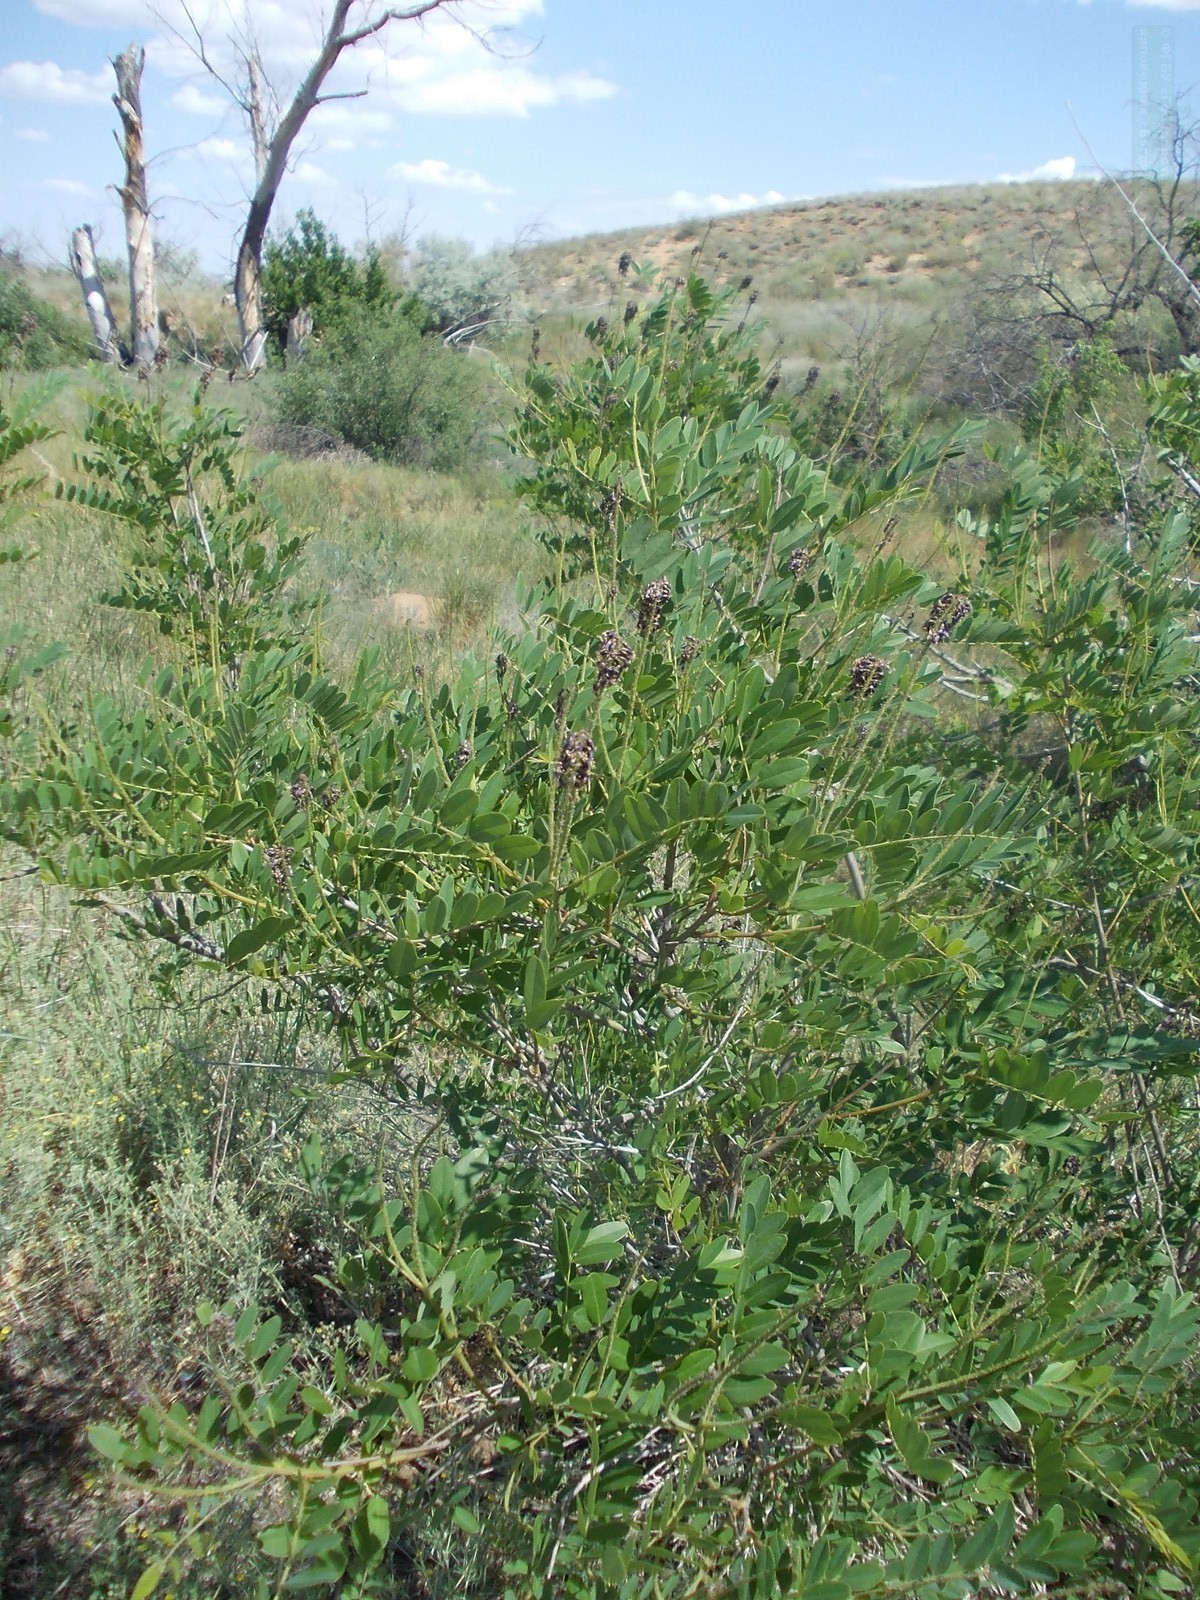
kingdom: Plantae
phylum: Tracheophyta
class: Magnoliopsida
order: Fabales
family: Fabaceae
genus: Amorpha
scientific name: Amorpha fruticosa
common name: False indigo
